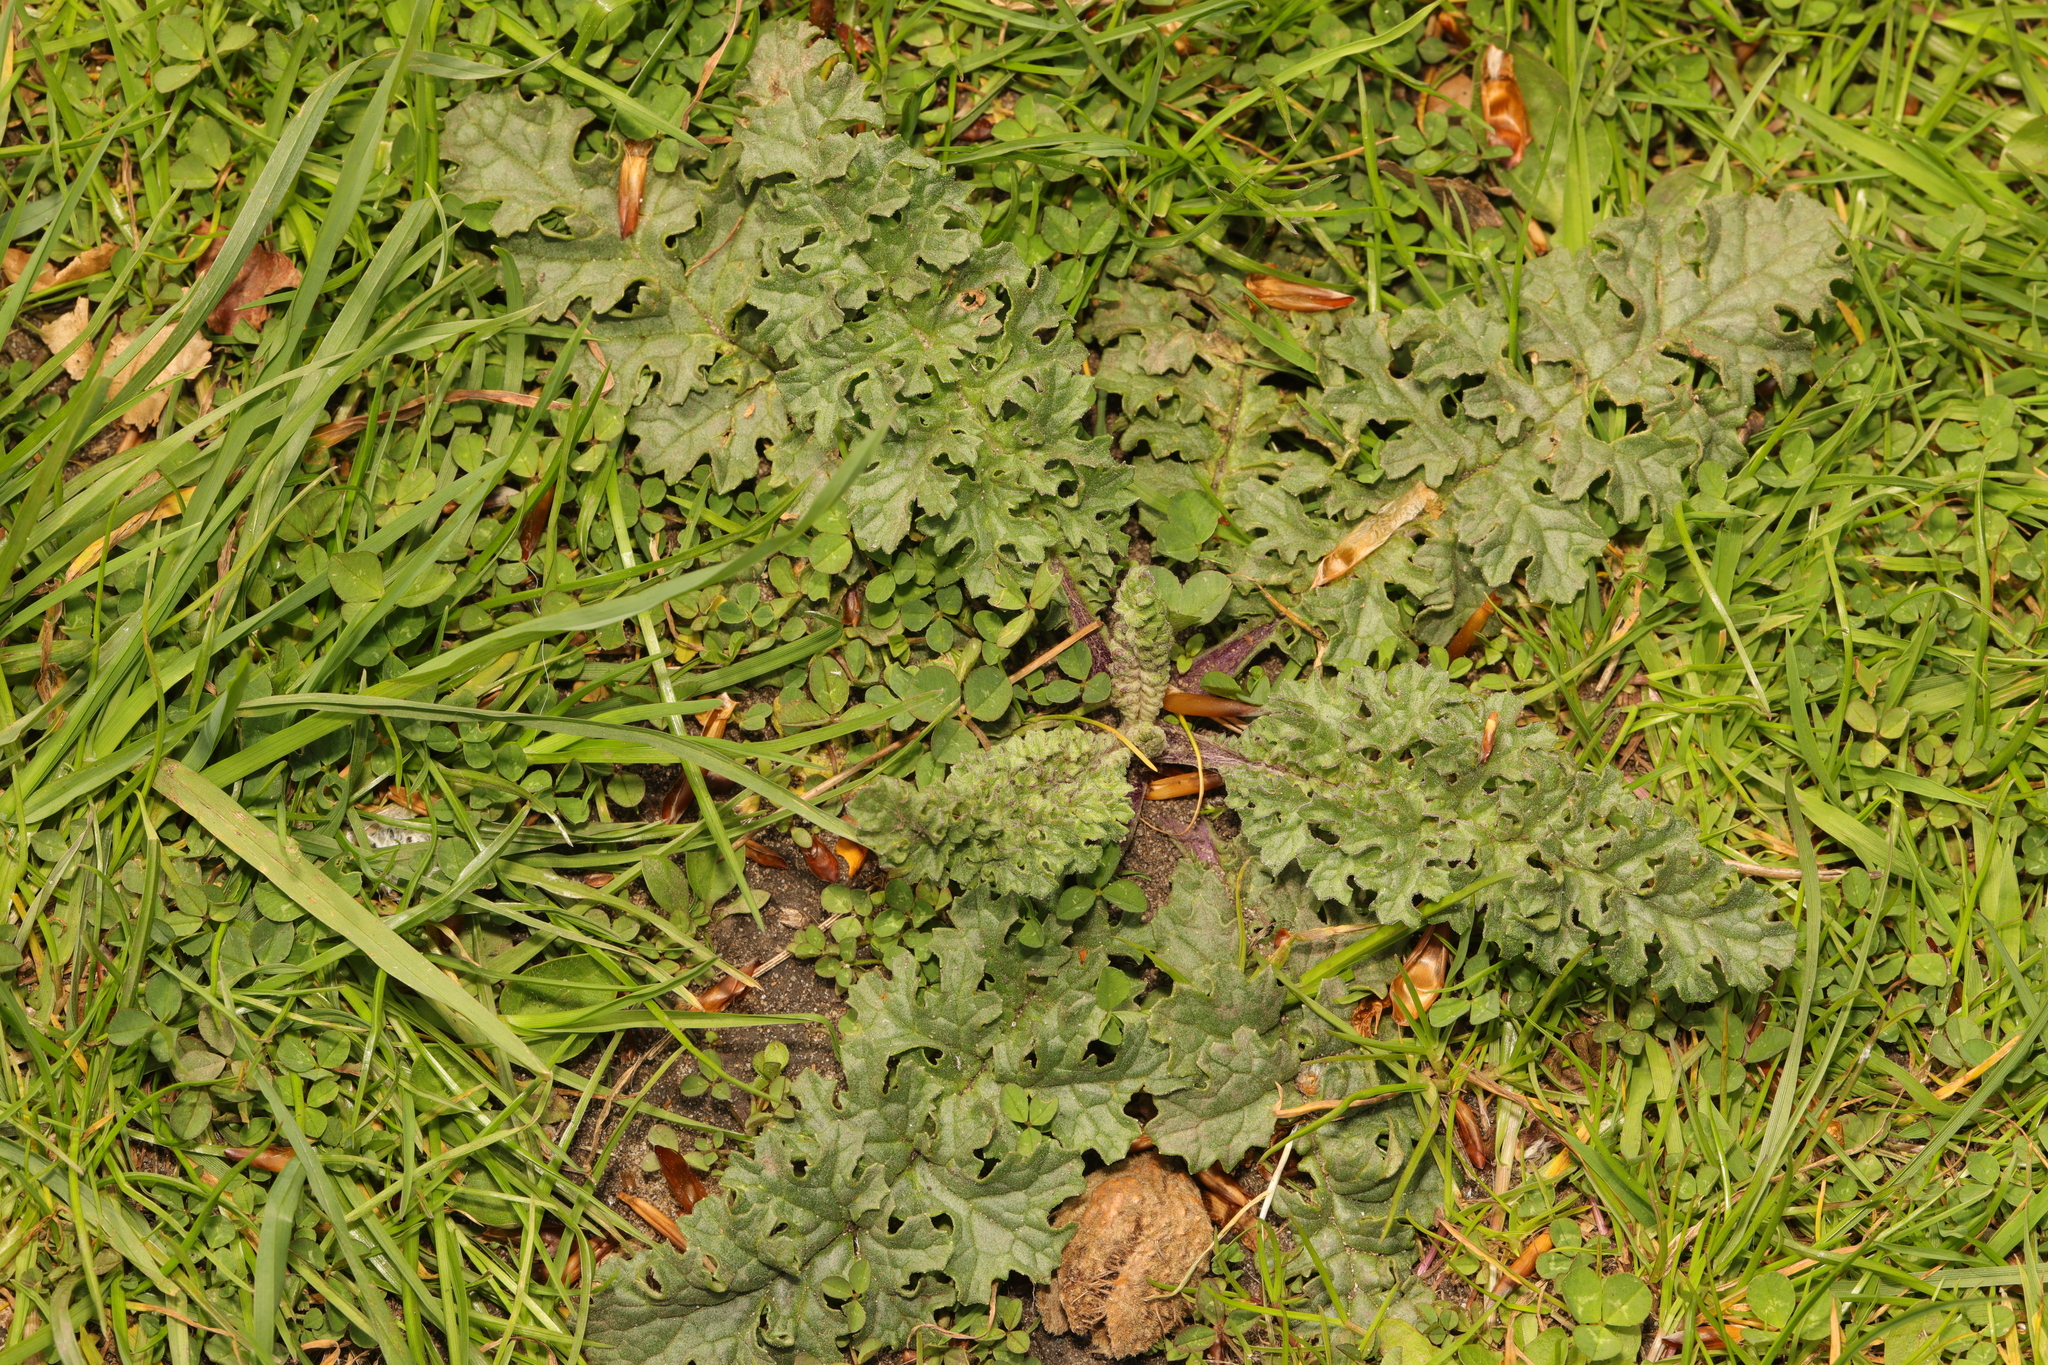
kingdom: Plantae
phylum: Tracheophyta
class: Magnoliopsida
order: Asterales
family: Asteraceae
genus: Jacobaea
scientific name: Jacobaea vulgaris
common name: Stinking willie
